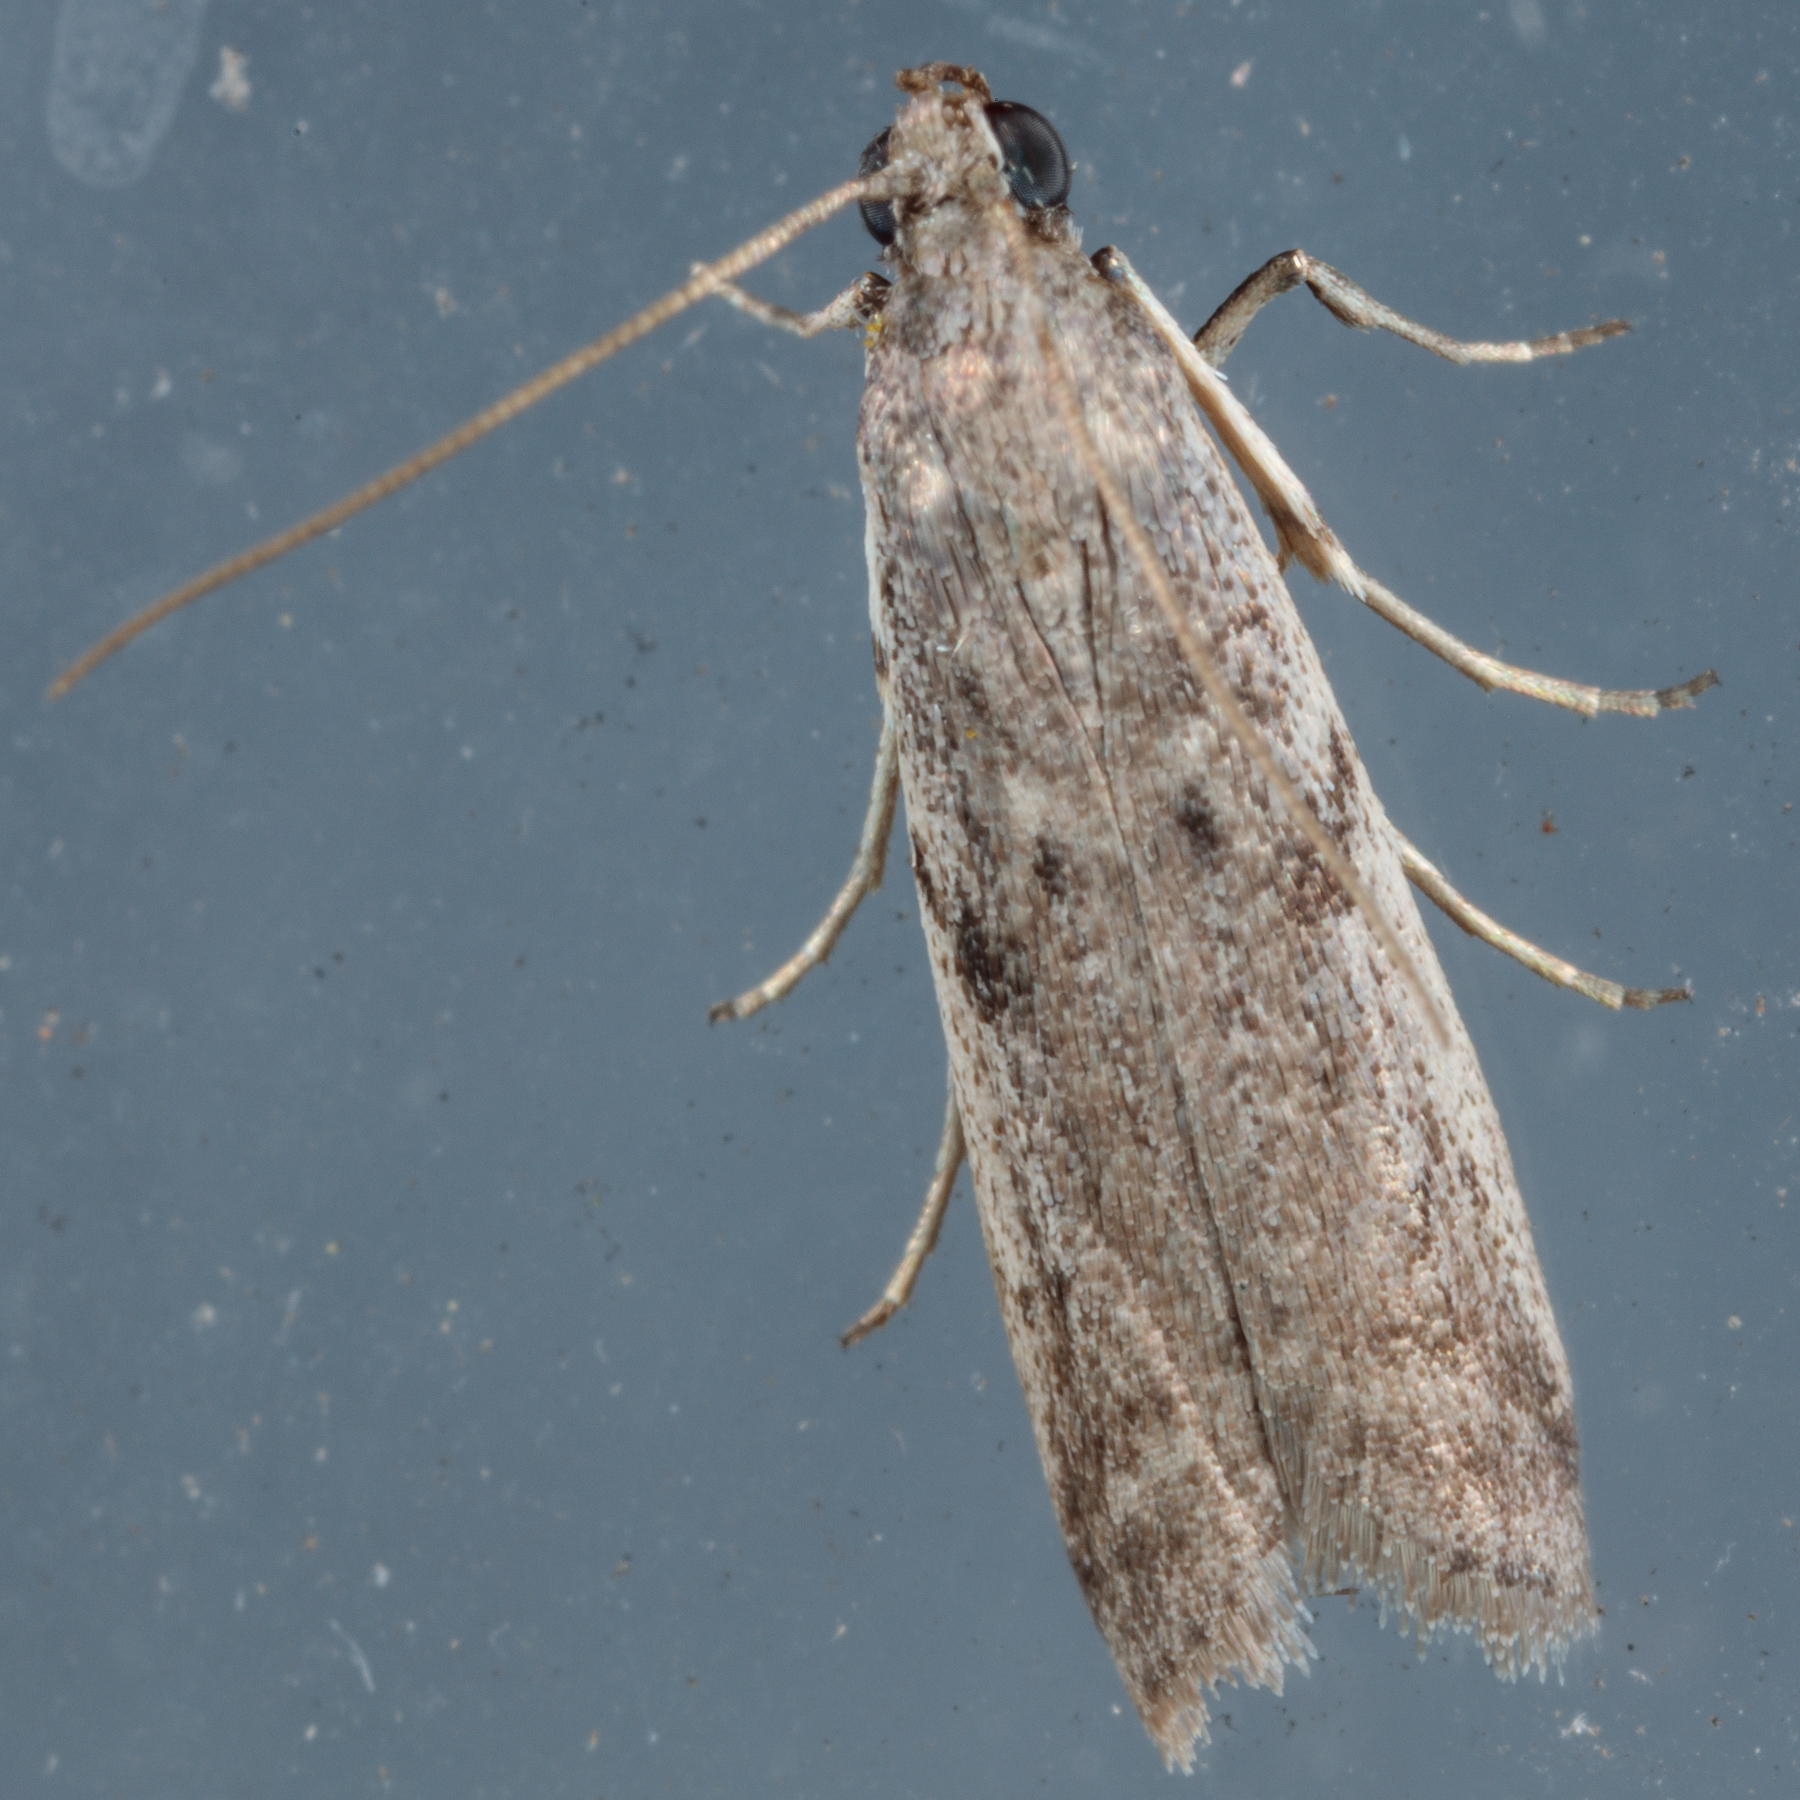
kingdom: Animalia
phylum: Arthropoda
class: Insecta
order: Lepidoptera
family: Pyralidae
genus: Phycitodes
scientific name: Phycitodes mucidellus
